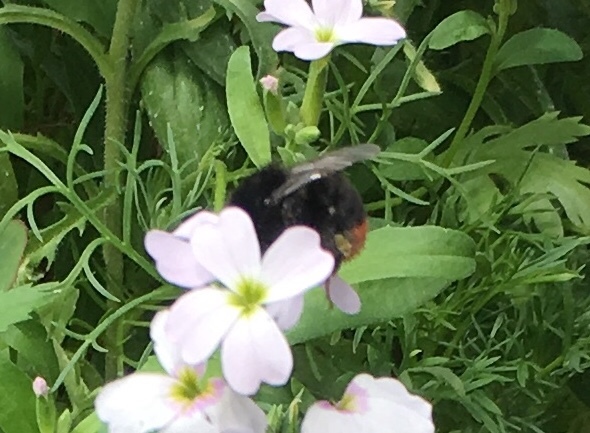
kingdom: Animalia
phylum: Arthropoda
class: Insecta
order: Hymenoptera
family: Apidae
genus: Bombus
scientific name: Bombus lapidarius
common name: Large red-tailed humble-bee
